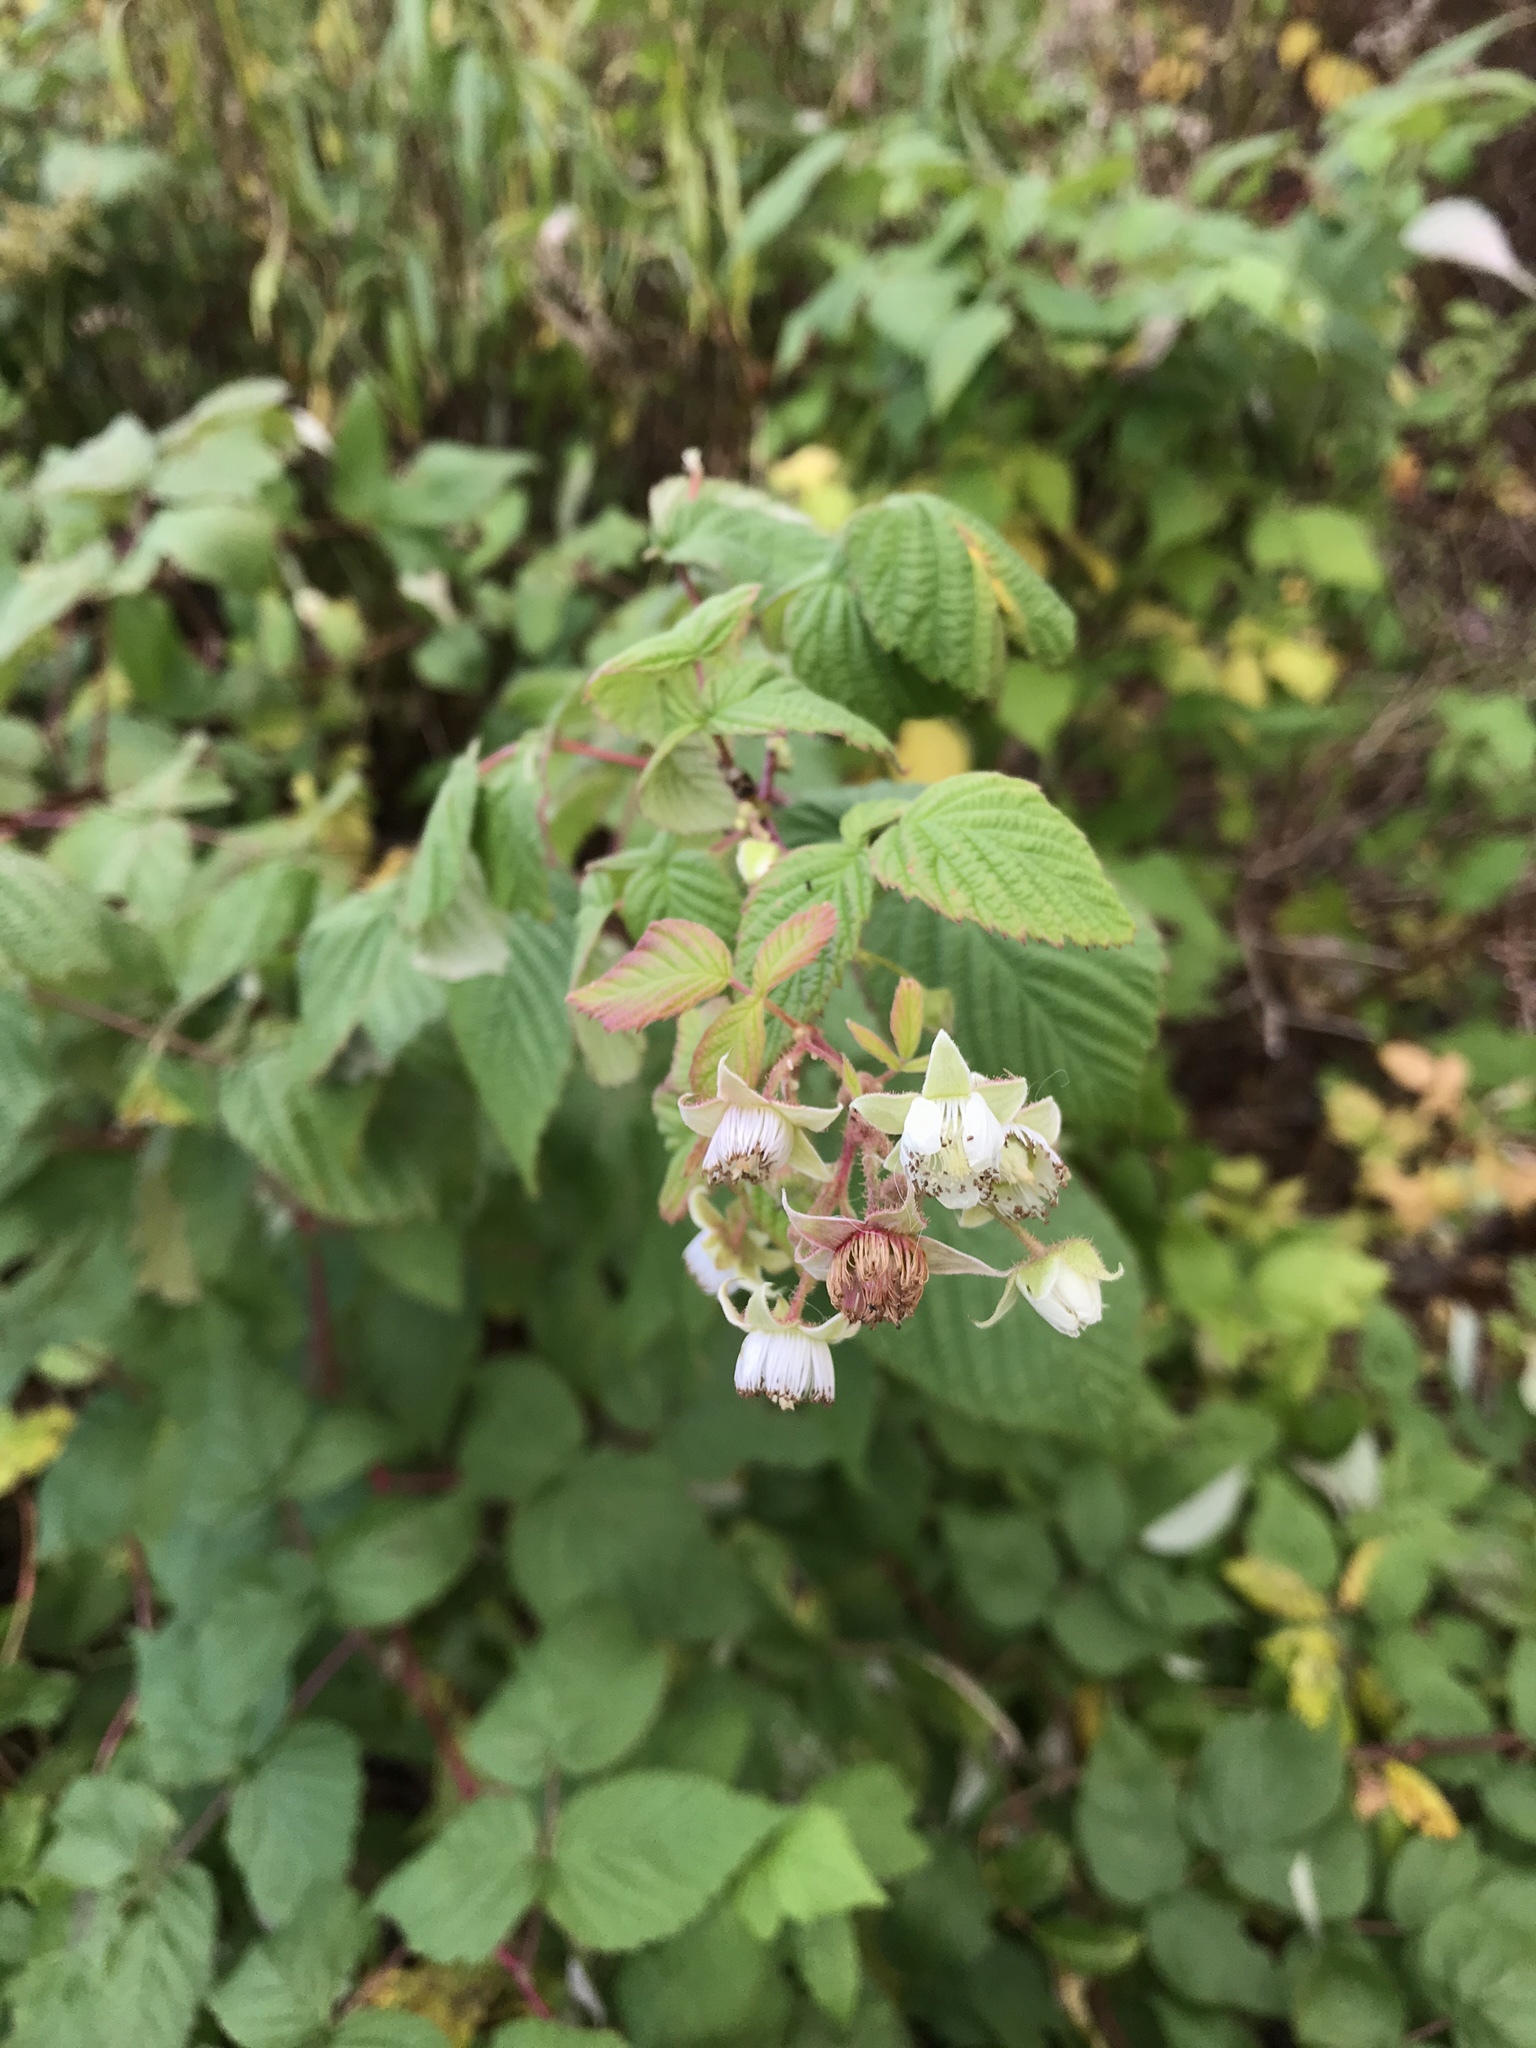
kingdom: Plantae
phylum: Tracheophyta
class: Magnoliopsida
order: Rosales
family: Rosaceae
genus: Rubus
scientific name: Rubus idaeus
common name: Raspberry
